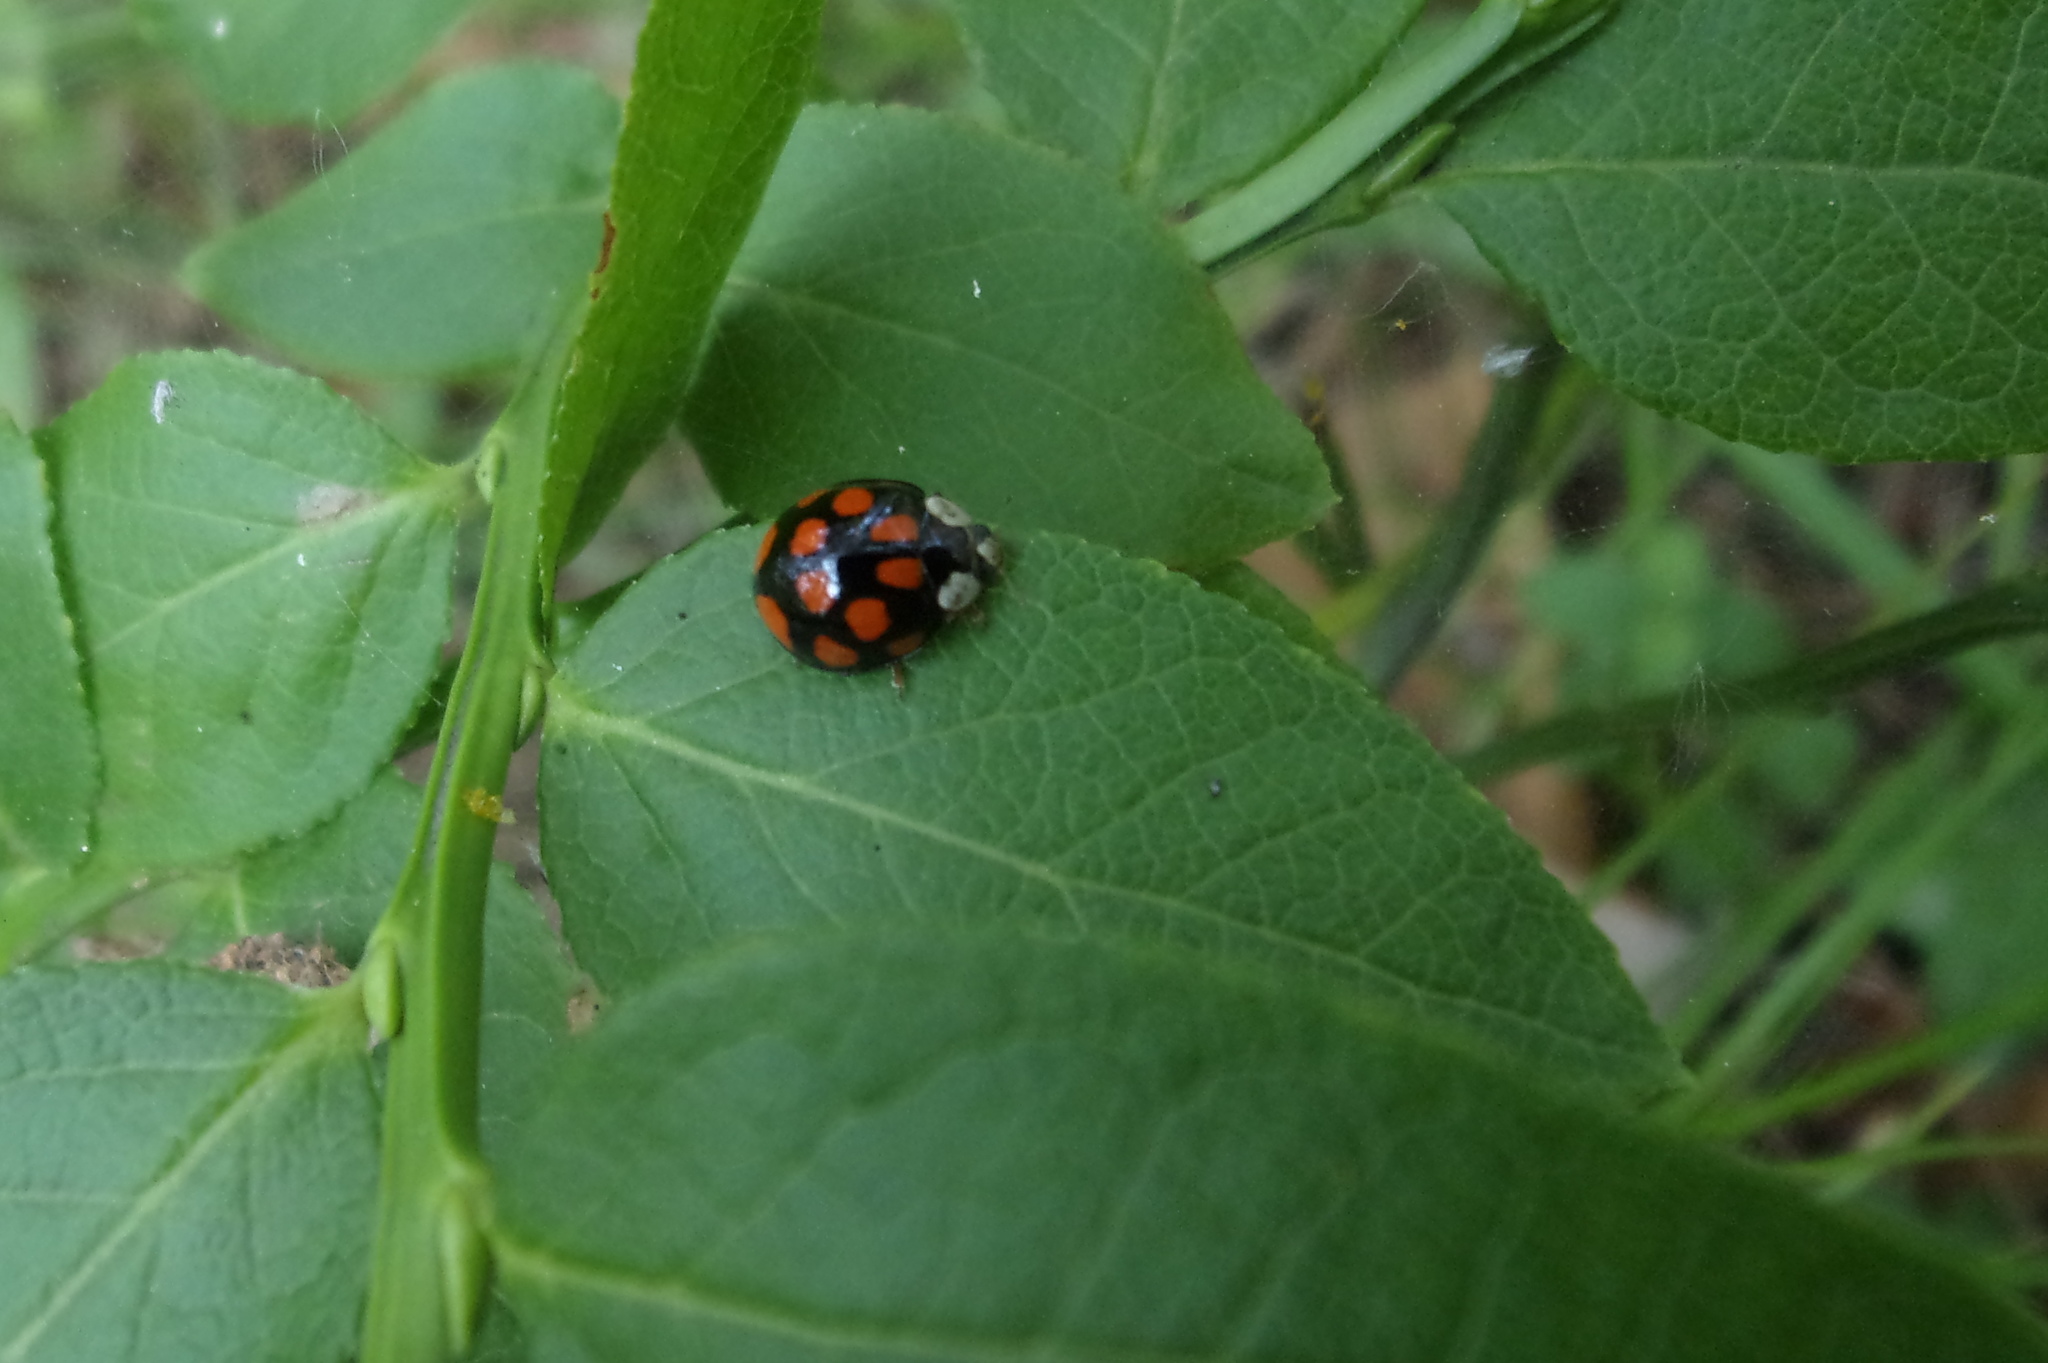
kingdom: Animalia
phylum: Arthropoda
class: Insecta
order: Coleoptera
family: Coccinellidae
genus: Harmonia
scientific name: Harmonia axyridis
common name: Harlequin ladybird
